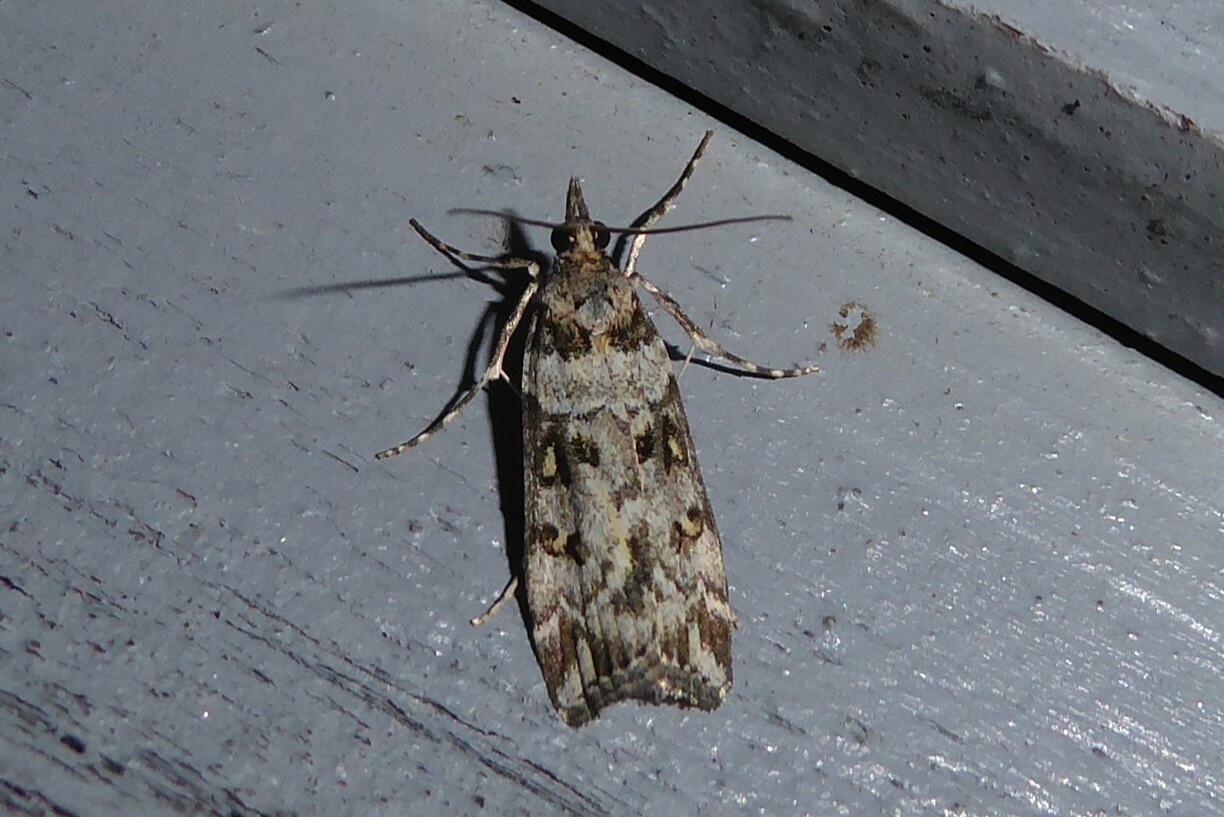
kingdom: Animalia
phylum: Arthropoda
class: Insecta
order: Lepidoptera
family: Crambidae
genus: Scoparia
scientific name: Scoparia tetracycla
